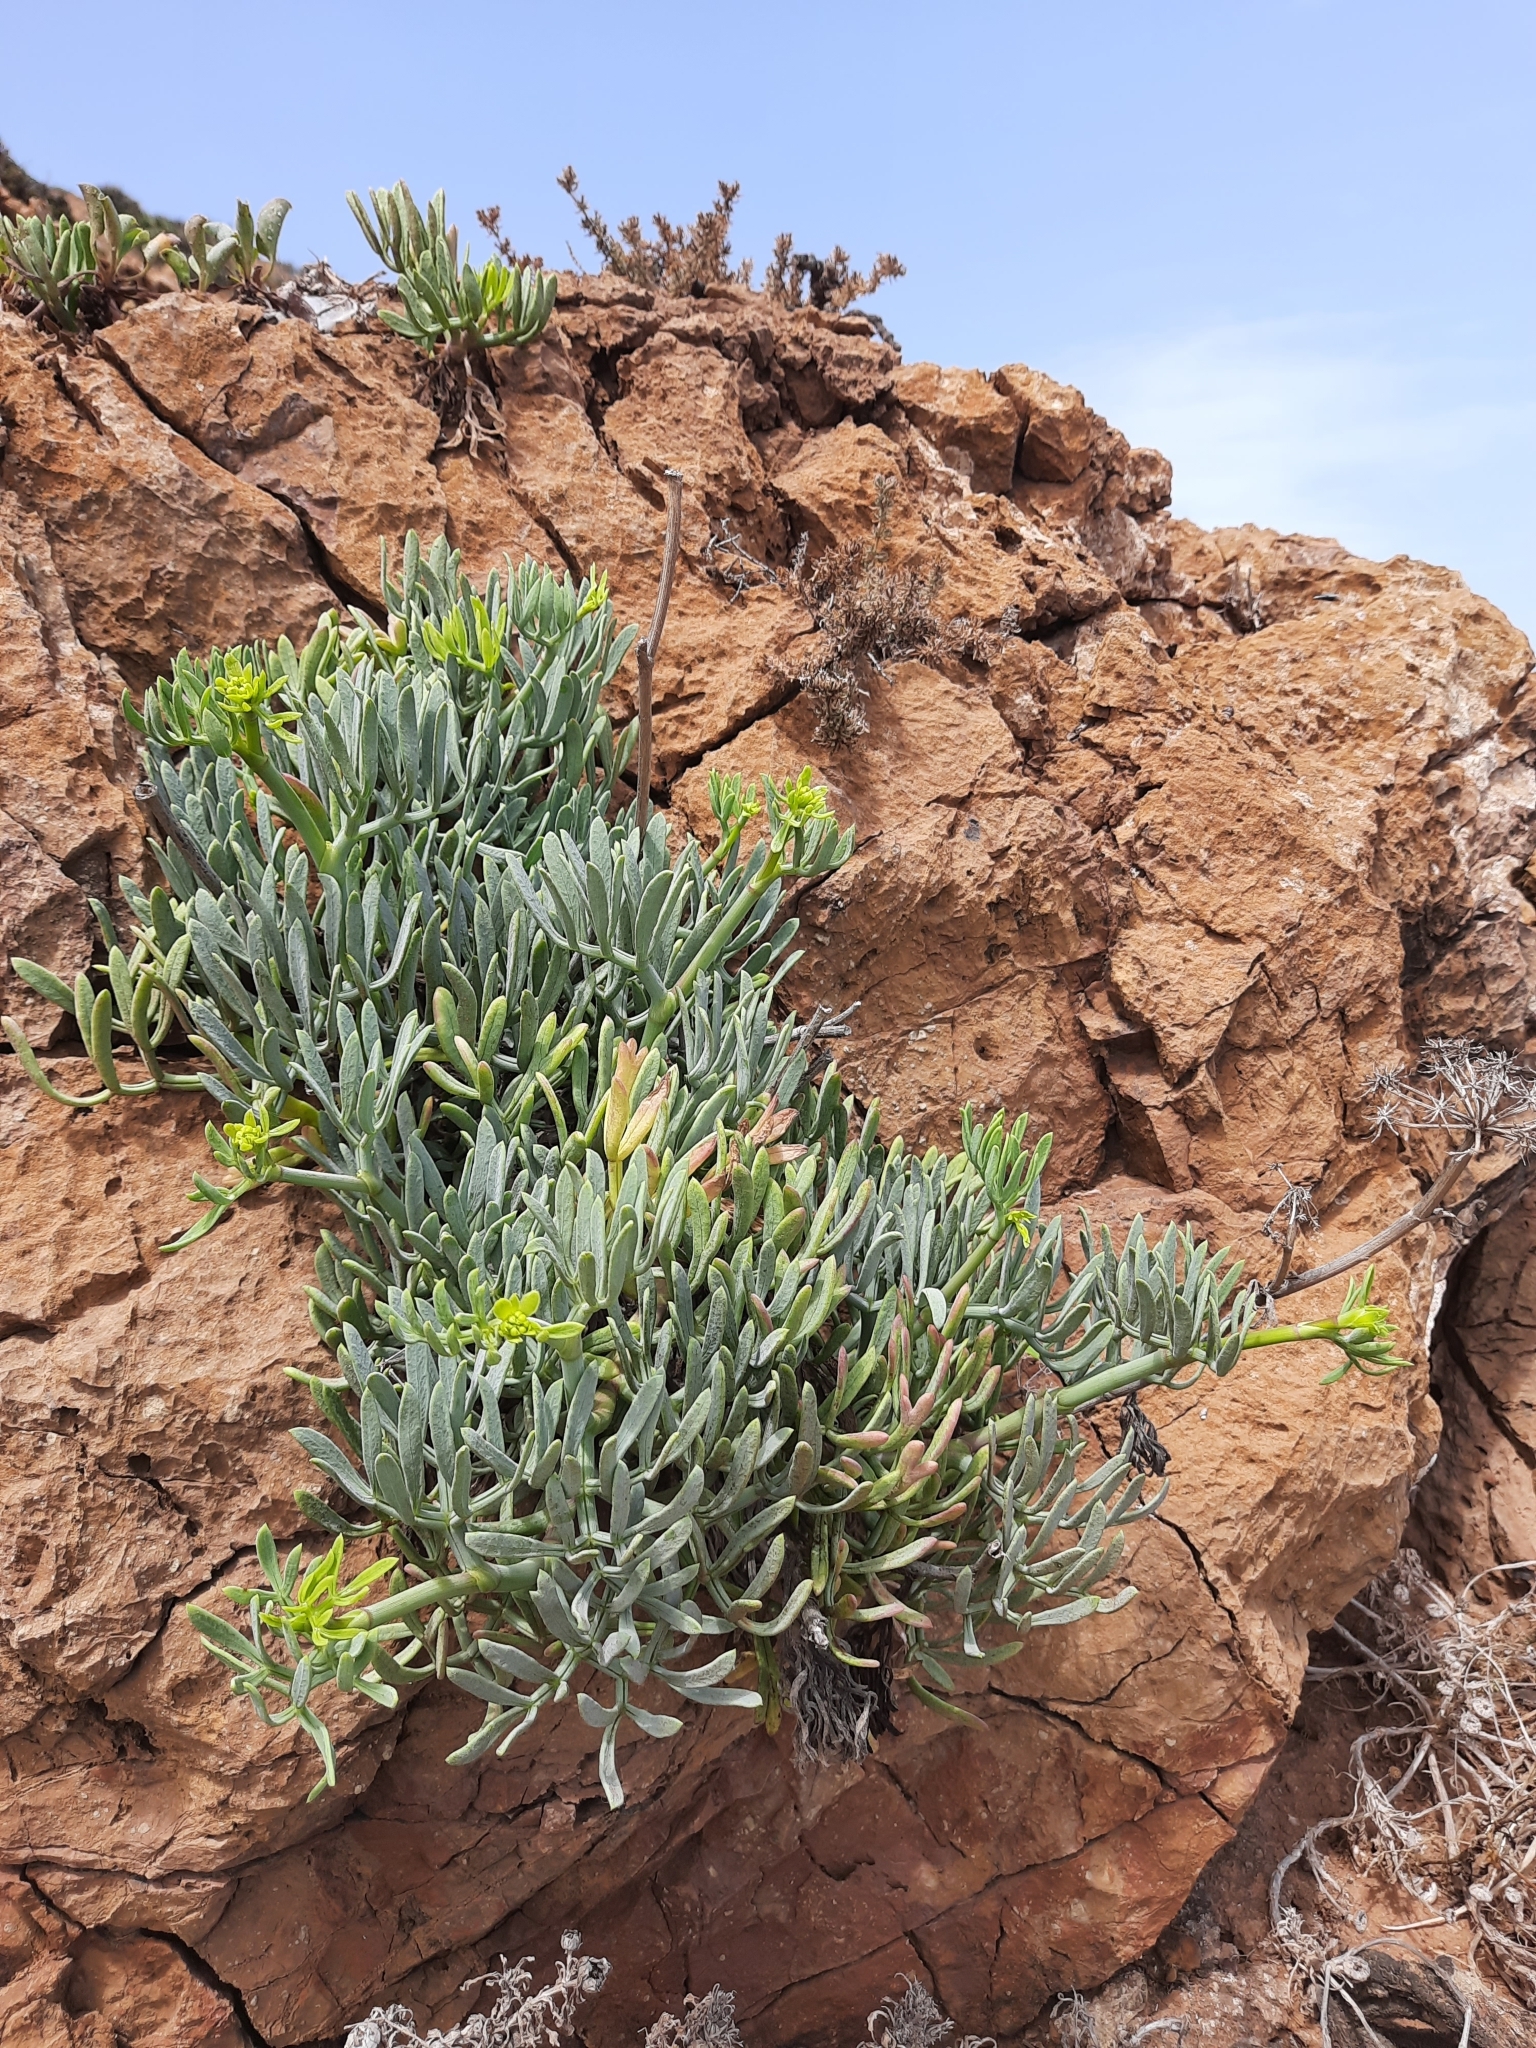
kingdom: Plantae
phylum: Tracheophyta
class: Magnoliopsida
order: Apiales
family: Apiaceae
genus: Crithmum
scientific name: Crithmum maritimum
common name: Rock samphire
